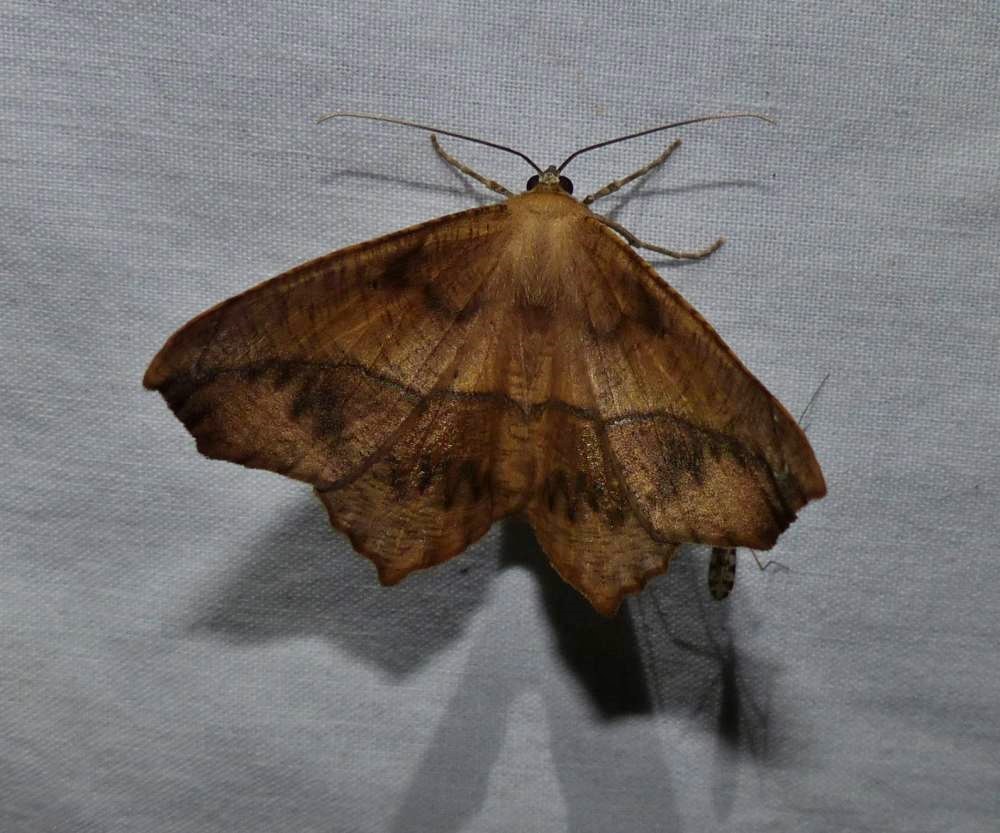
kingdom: Animalia
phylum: Arthropoda
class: Insecta
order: Lepidoptera
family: Geometridae
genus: Prochoerodes
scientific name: Prochoerodes lineola
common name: Large maple spanworm
